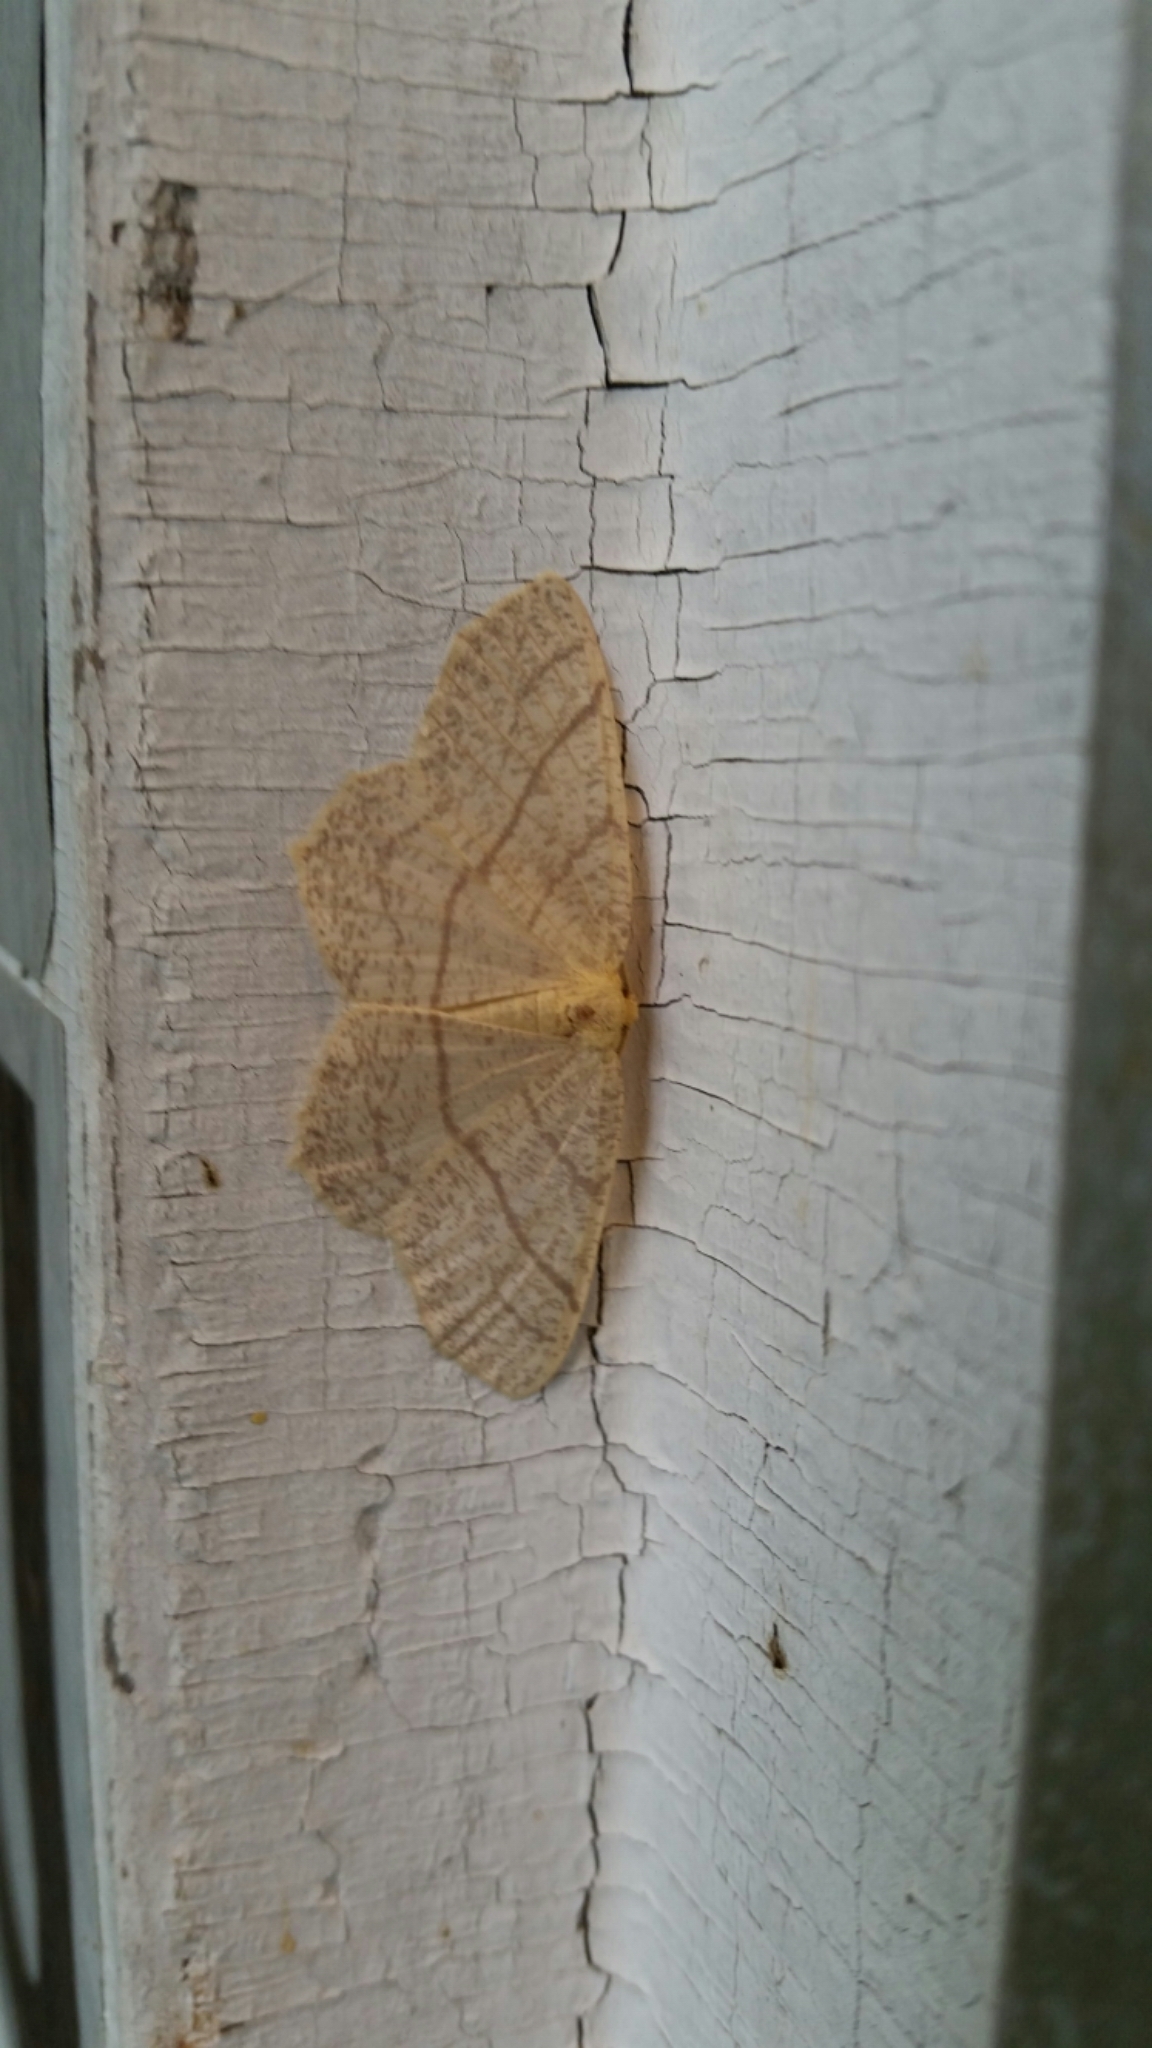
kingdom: Animalia
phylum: Arthropoda
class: Insecta
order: Lepidoptera
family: Geometridae
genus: Besma
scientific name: Besma endropiaria
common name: Straw besma
